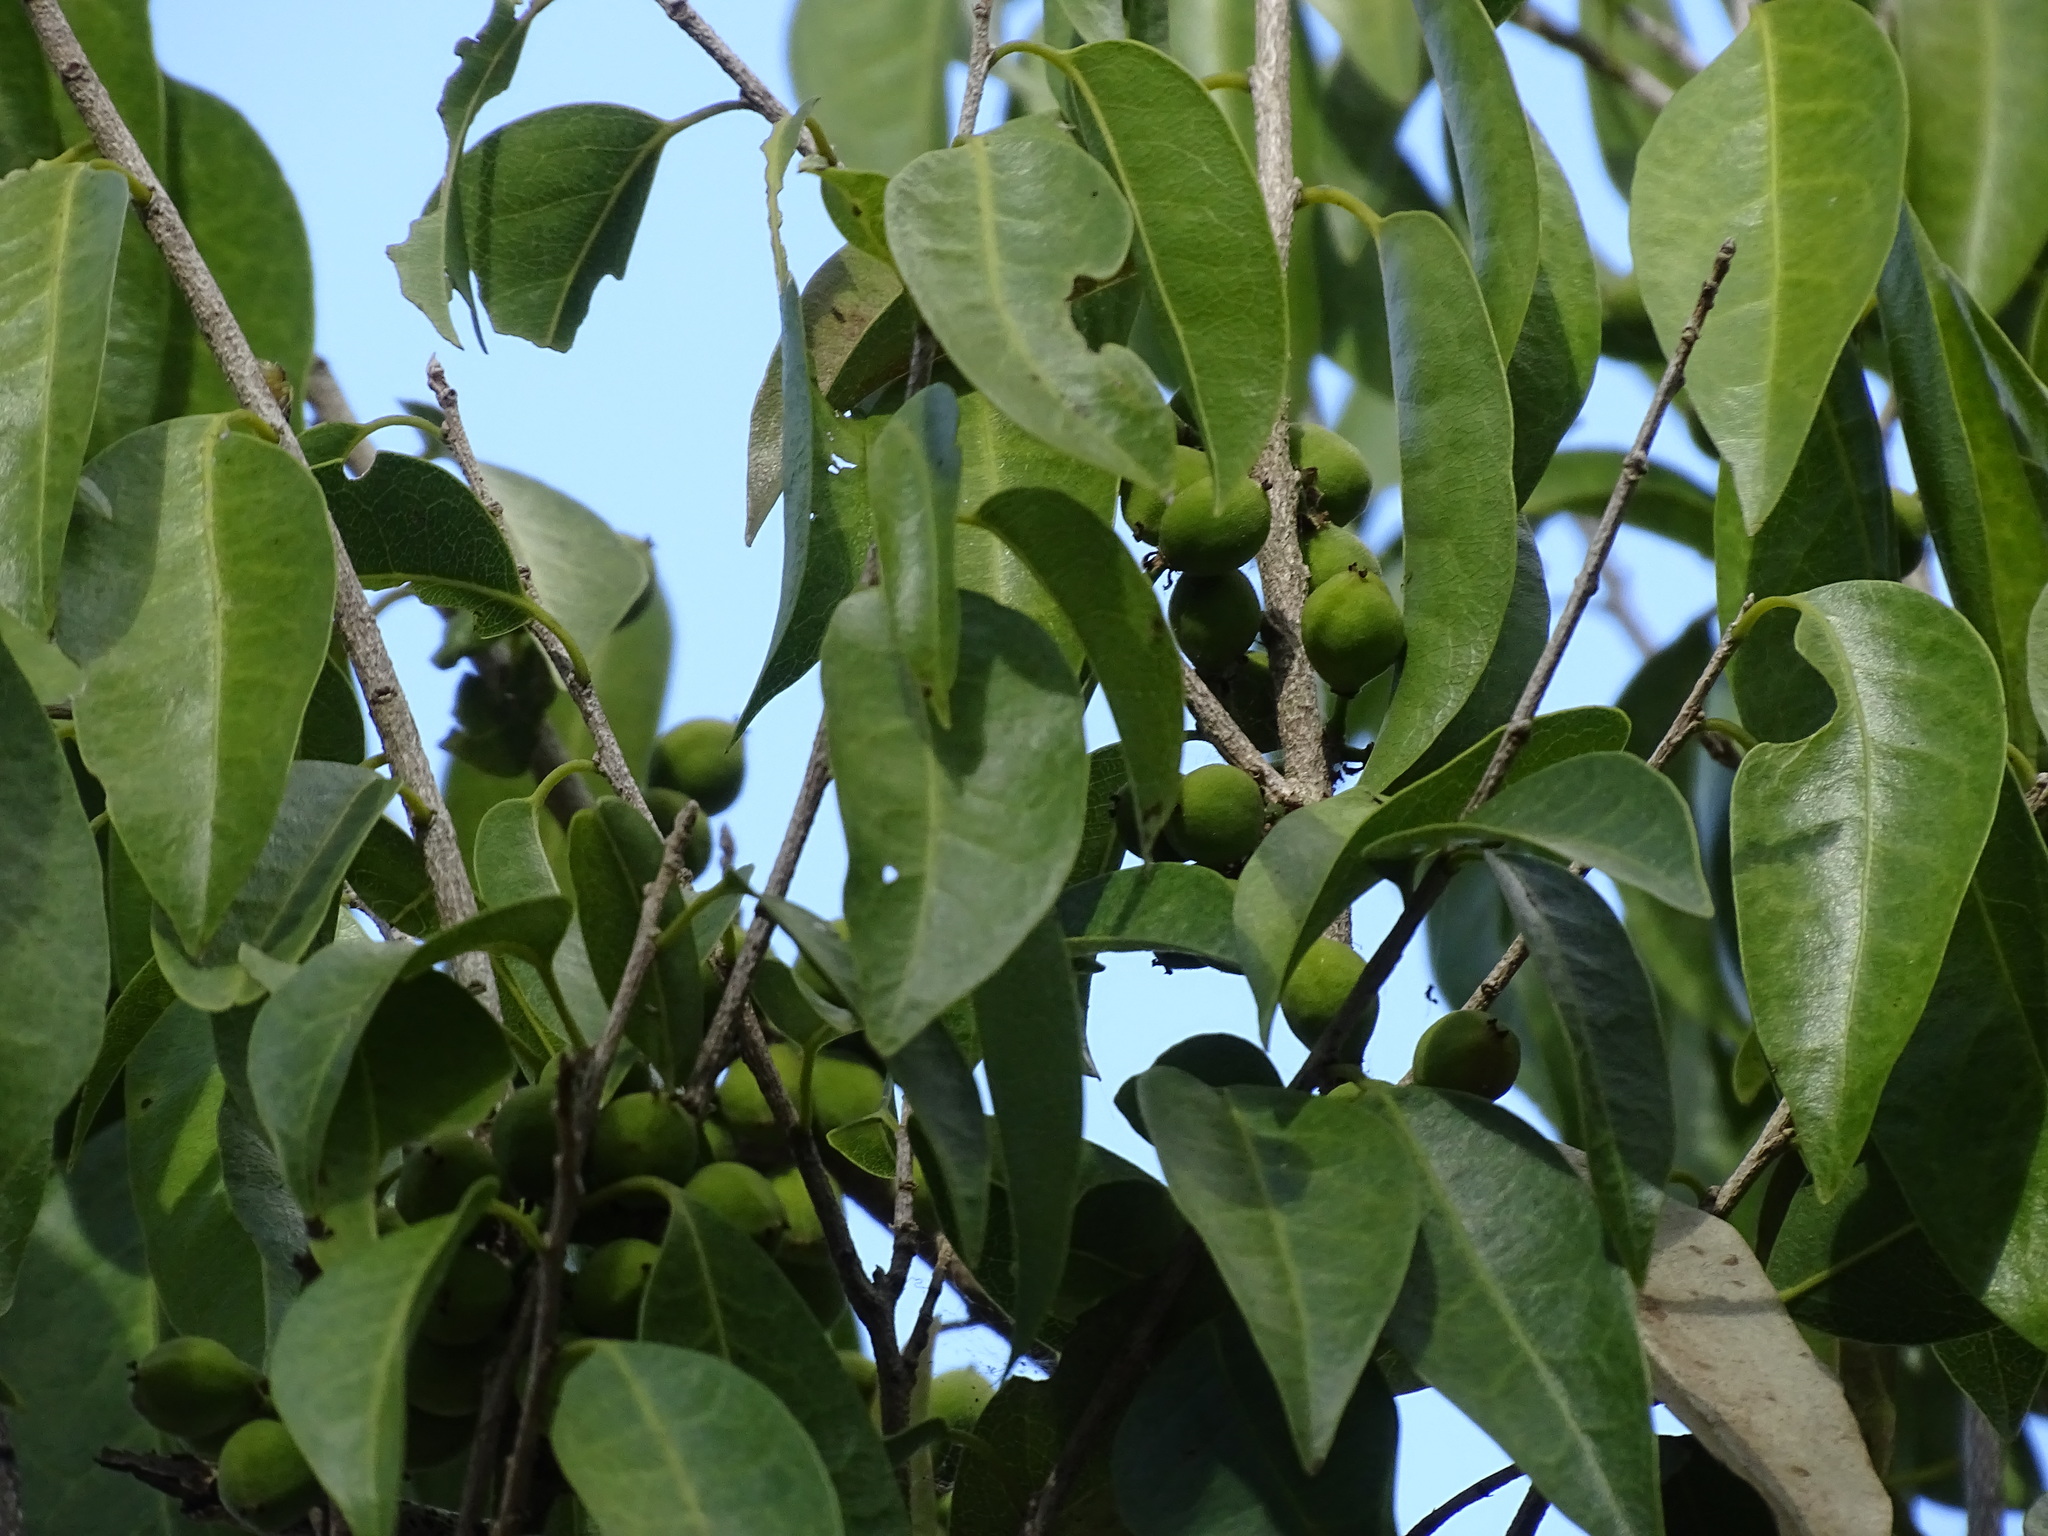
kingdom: Plantae
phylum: Tracheophyta
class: Magnoliopsida
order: Malpighiales
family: Putranjivaceae
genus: Drypetes
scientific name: Drypetes lateriflora
